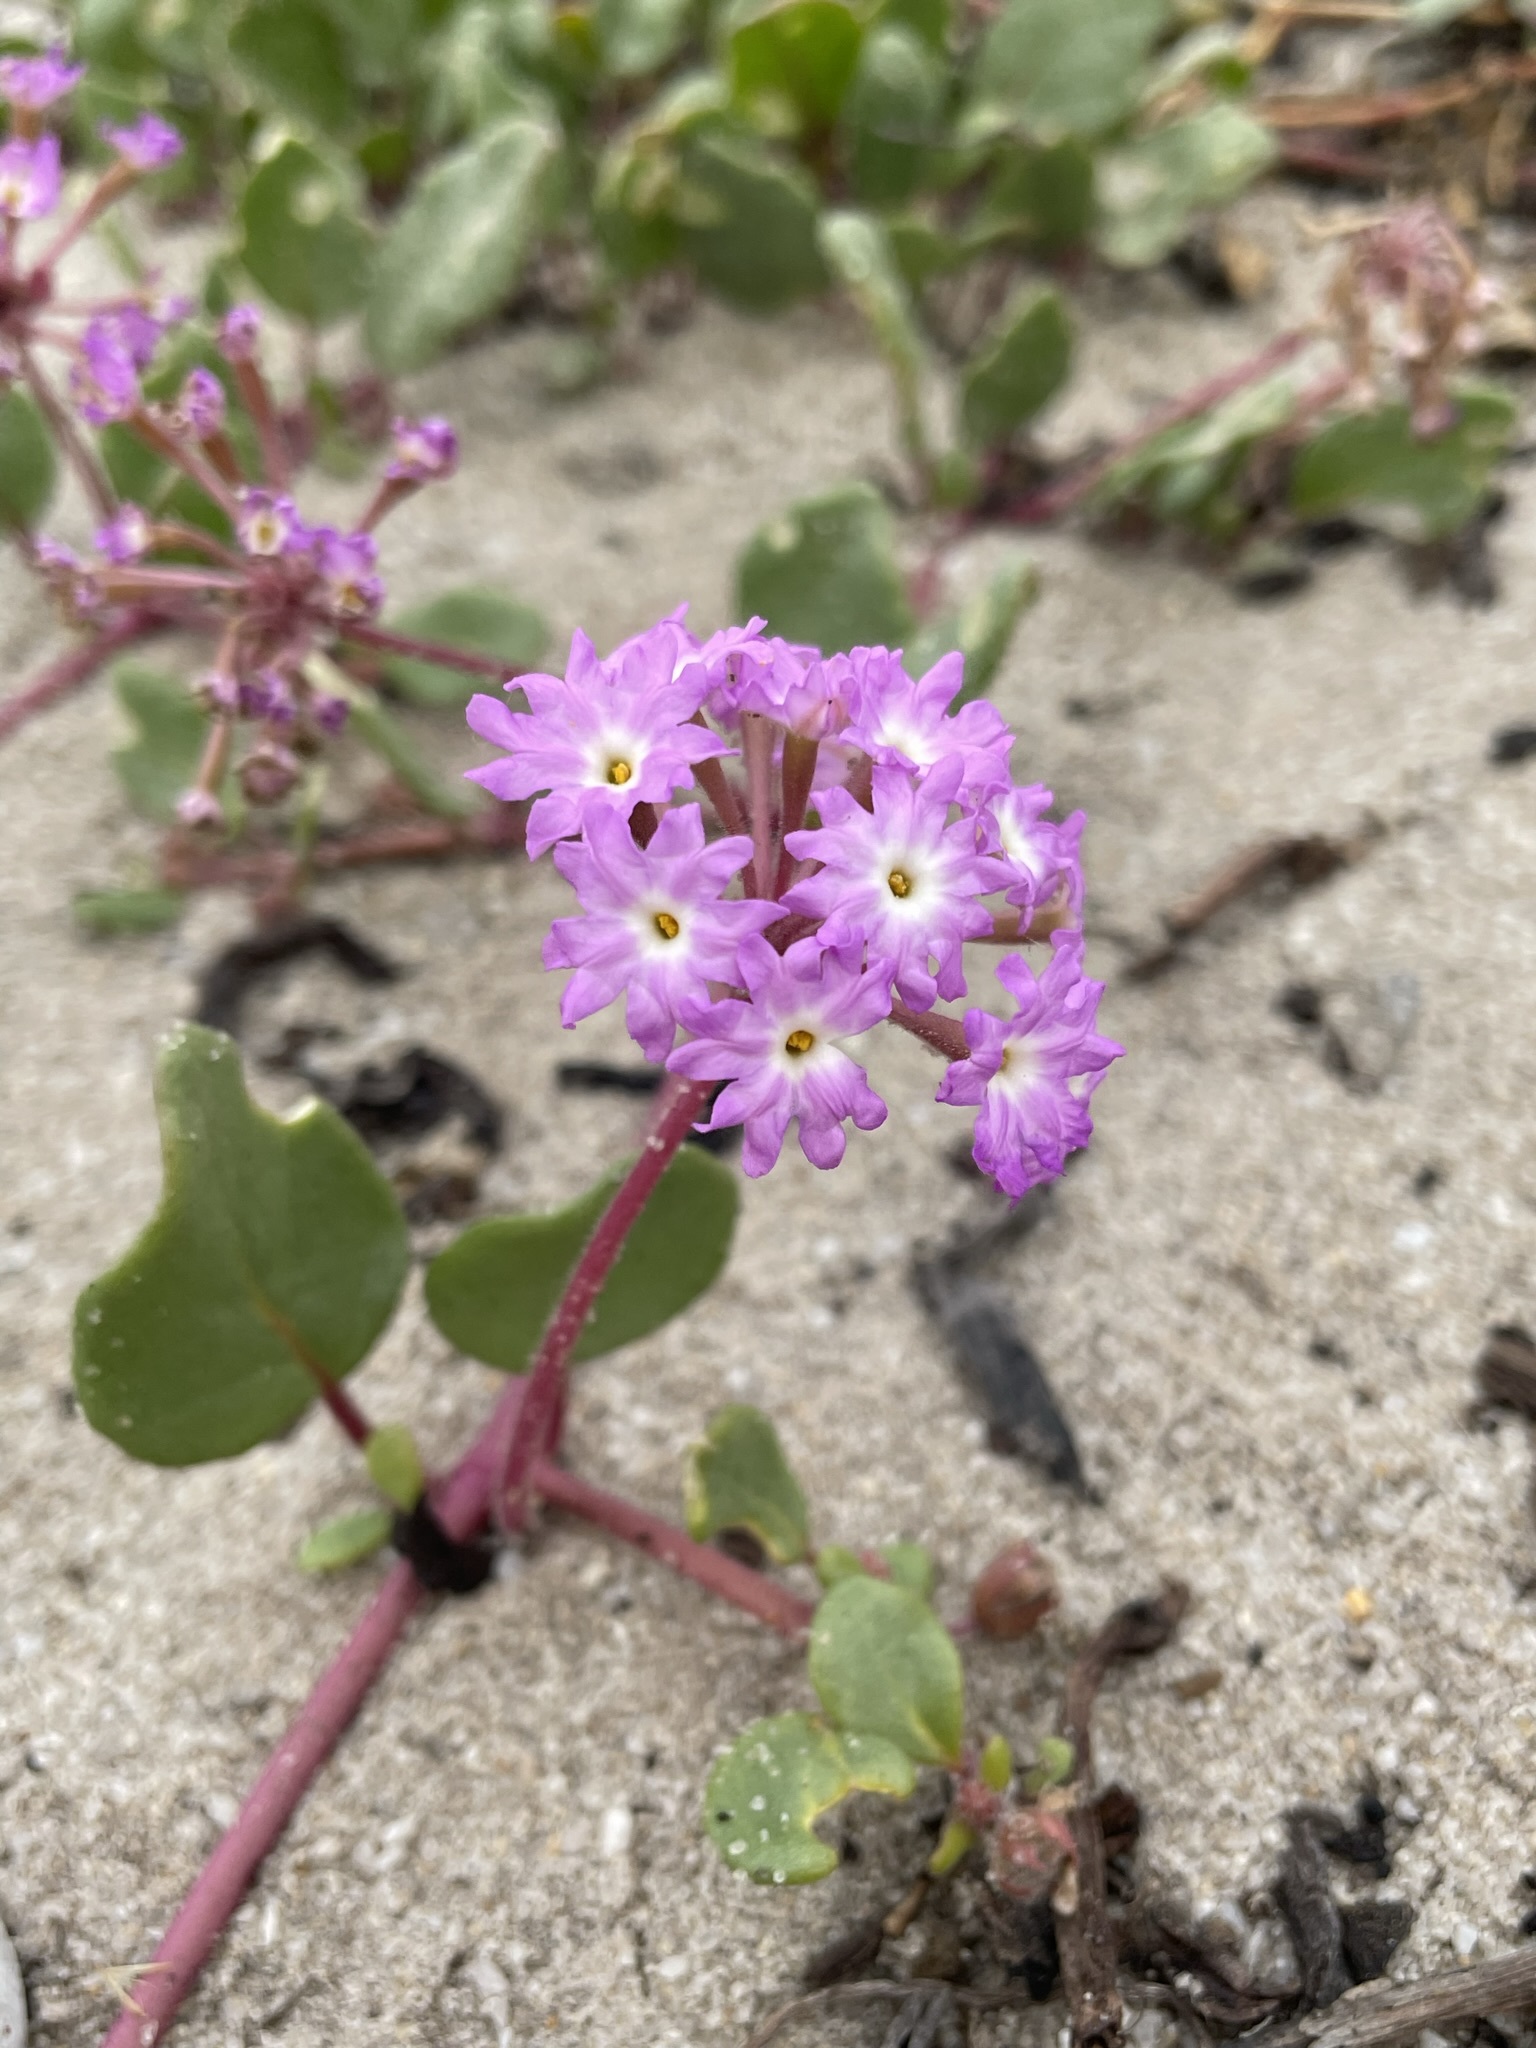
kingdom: Plantae
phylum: Tracheophyta
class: Magnoliopsida
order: Caryophyllales
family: Nyctaginaceae
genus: Abronia
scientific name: Abronia umbellata
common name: Sand-verbena
